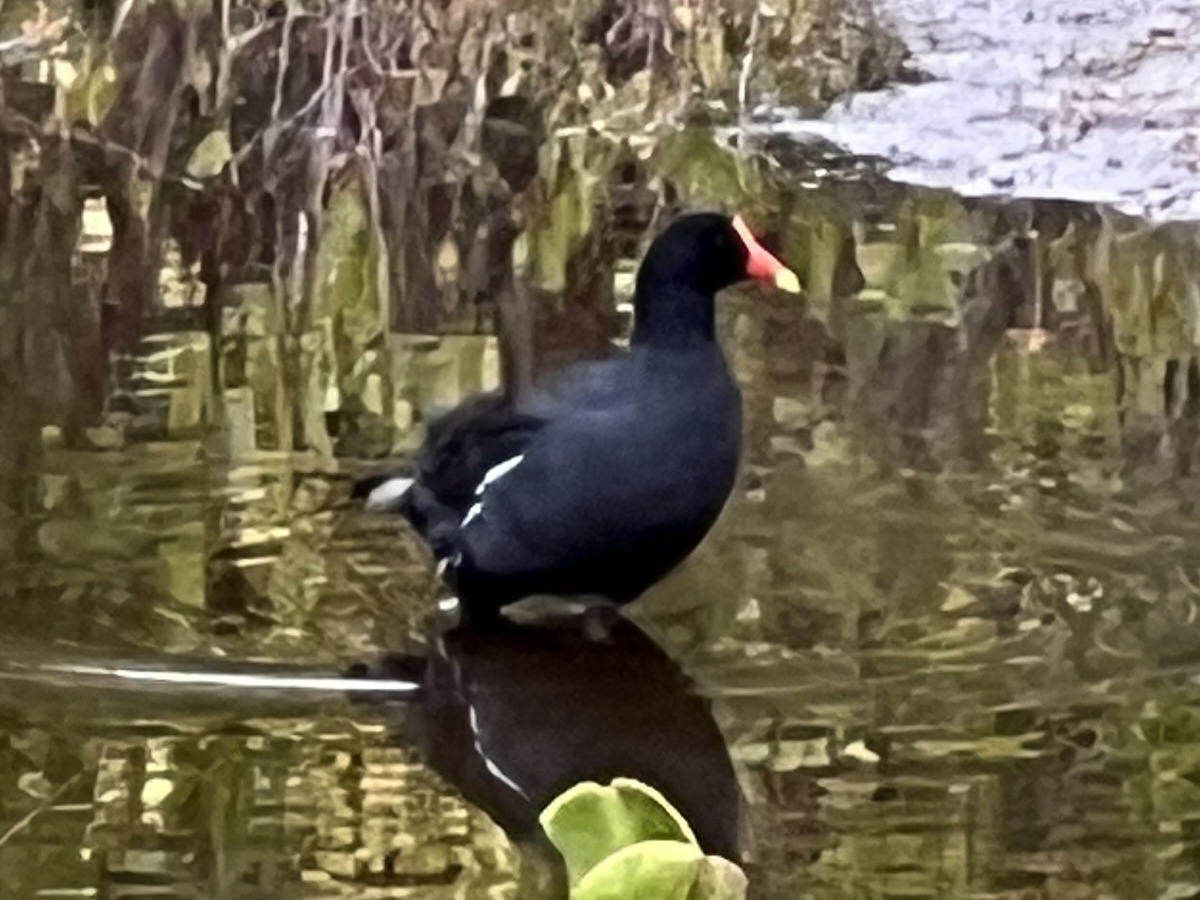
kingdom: Animalia
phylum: Chordata
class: Aves
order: Gruiformes
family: Rallidae
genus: Gallinula
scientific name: Gallinula chloropus
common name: Common moorhen
